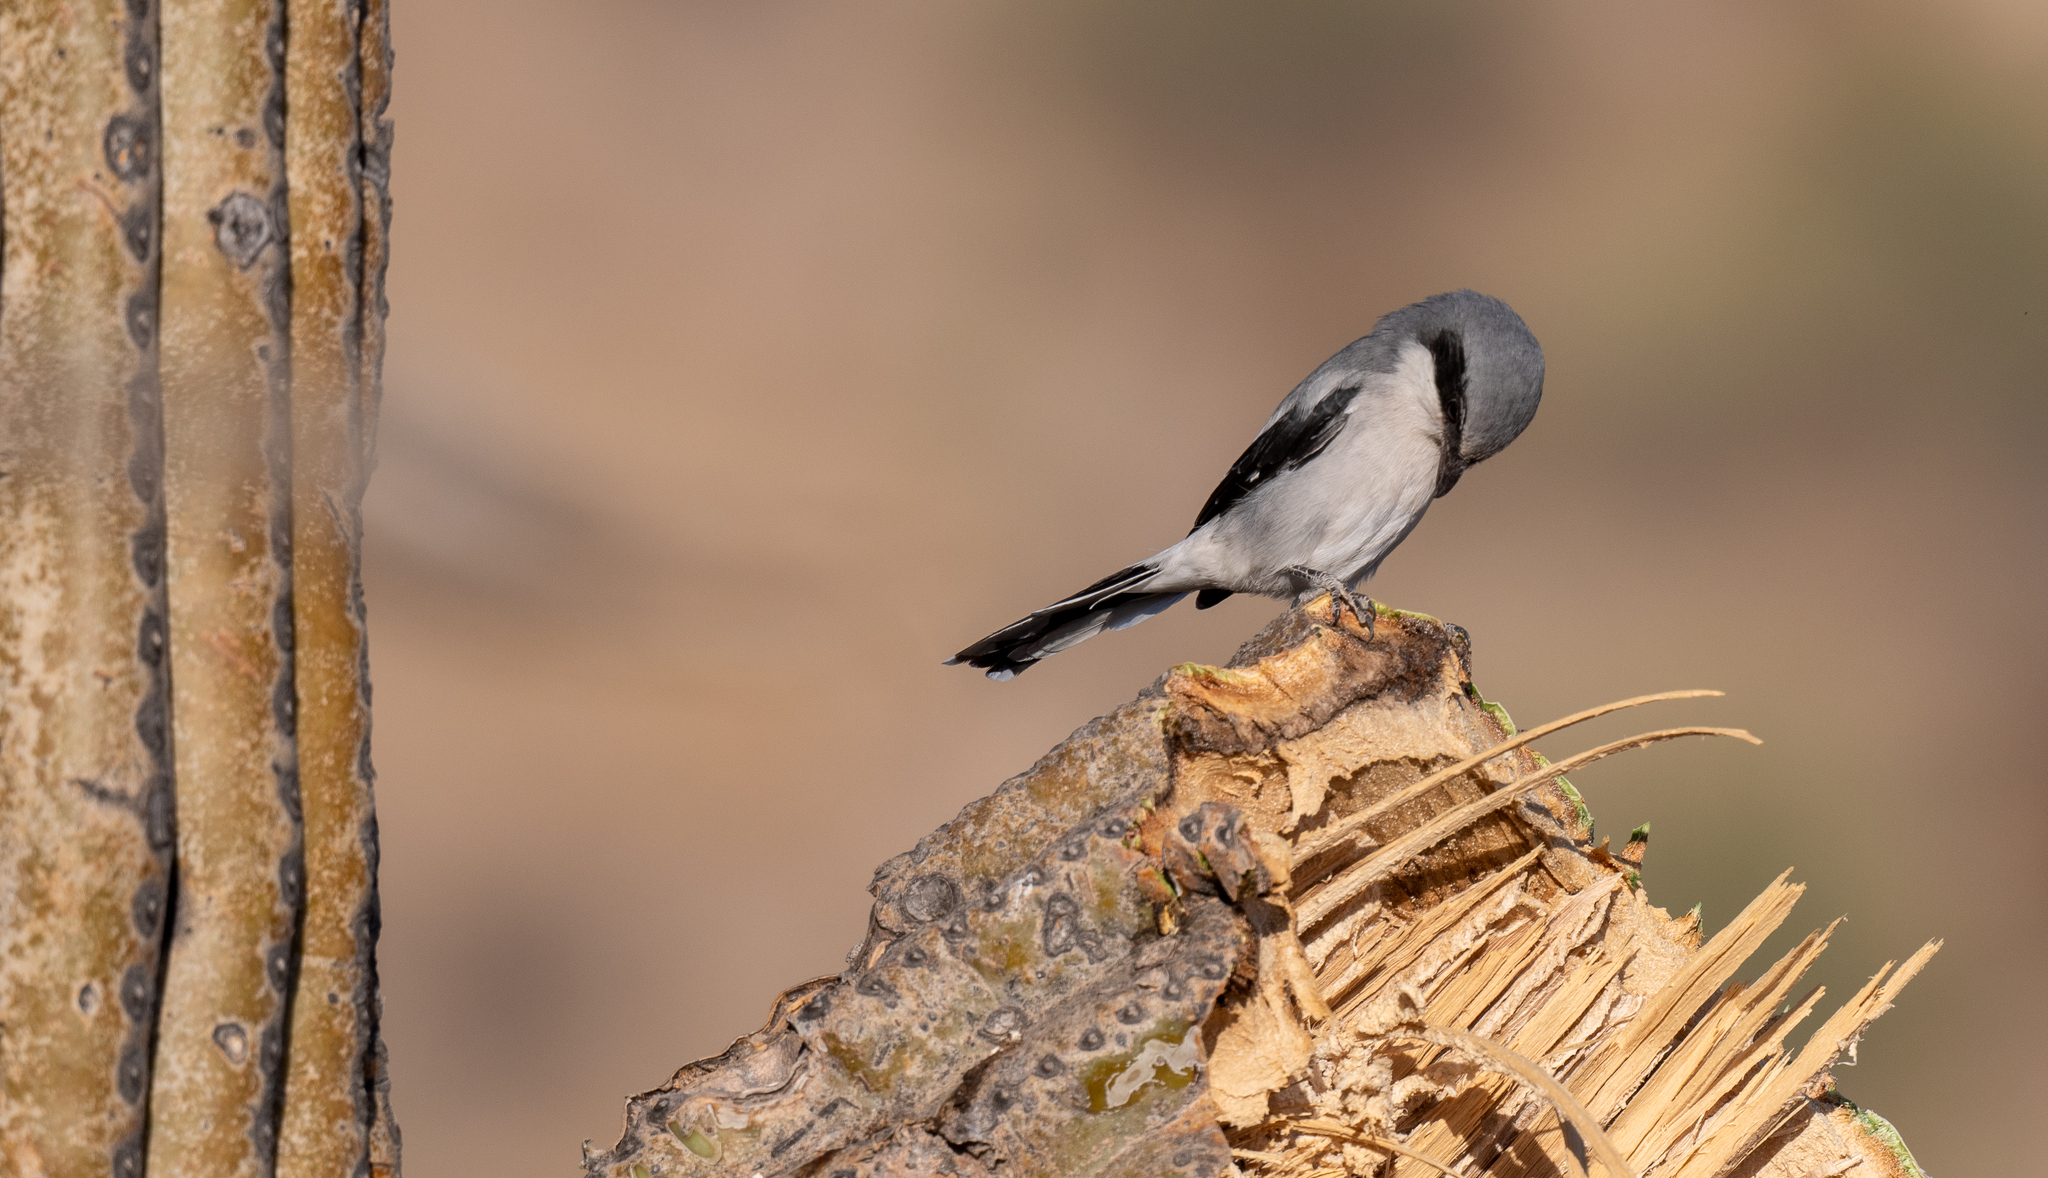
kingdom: Animalia
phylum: Chordata
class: Aves
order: Passeriformes
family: Laniidae
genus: Lanius
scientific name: Lanius ludovicianus
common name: Loggerhead shrike
